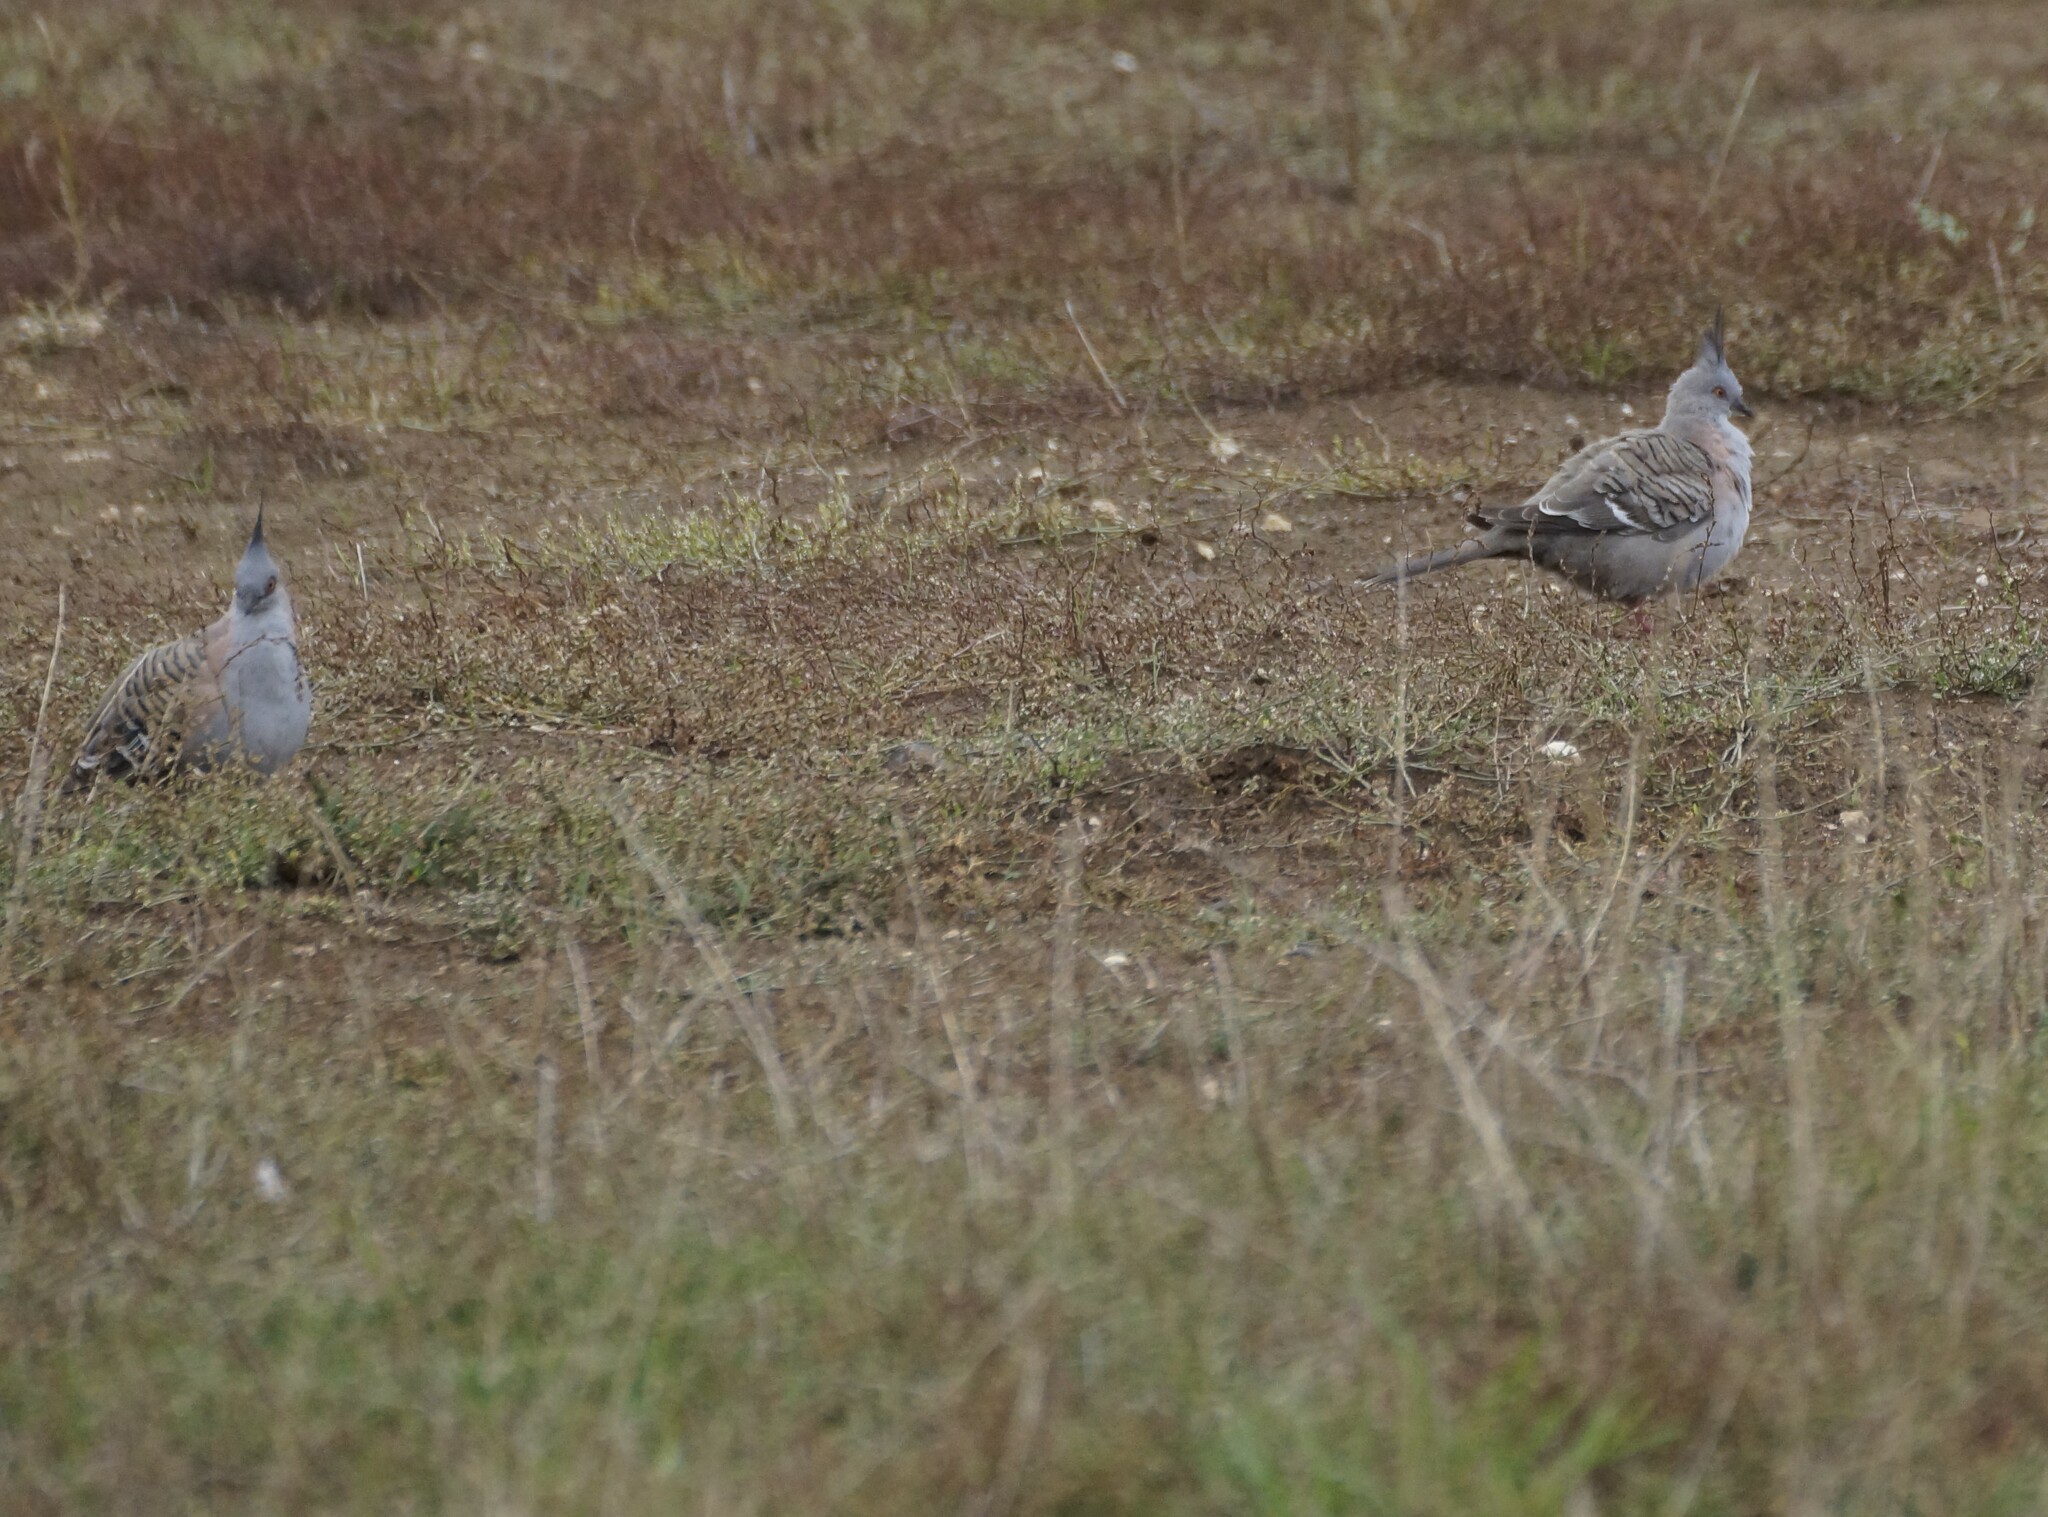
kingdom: Animalia
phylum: Chordata
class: Aves
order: Columbiformes
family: Columbidae
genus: Ocyphaps
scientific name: Ocyphaps lophotes
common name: Crested pigeon
